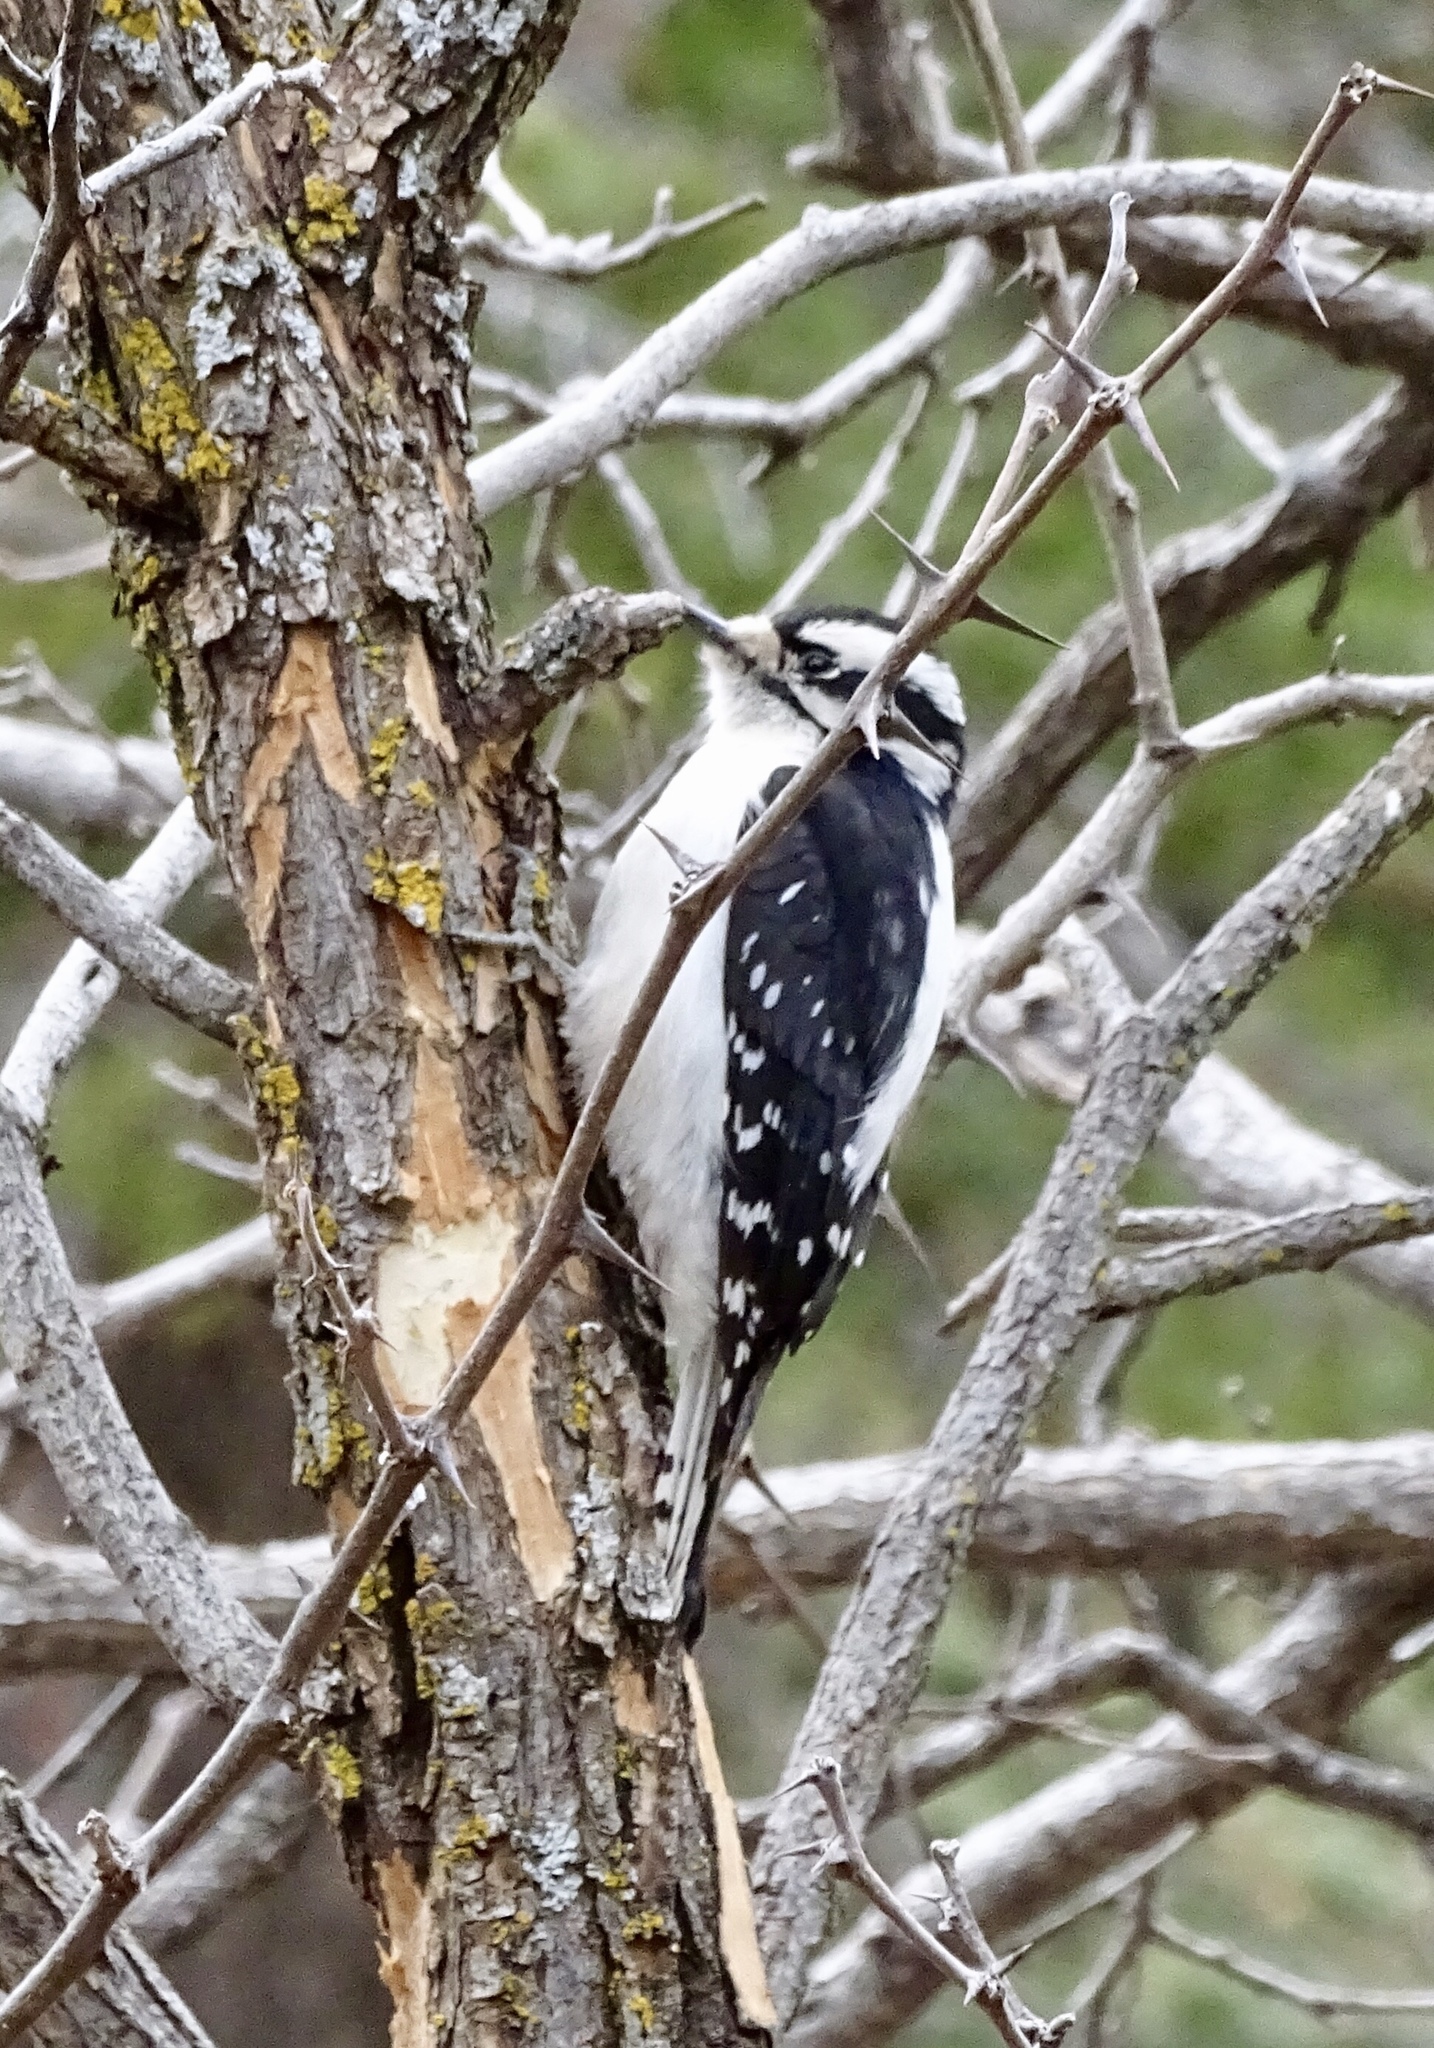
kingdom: Animalia
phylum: Chordata
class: Aves
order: Piciformes
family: Picidae
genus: Dryobates
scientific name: Dryobates pubescens
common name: Downy woodpecker
